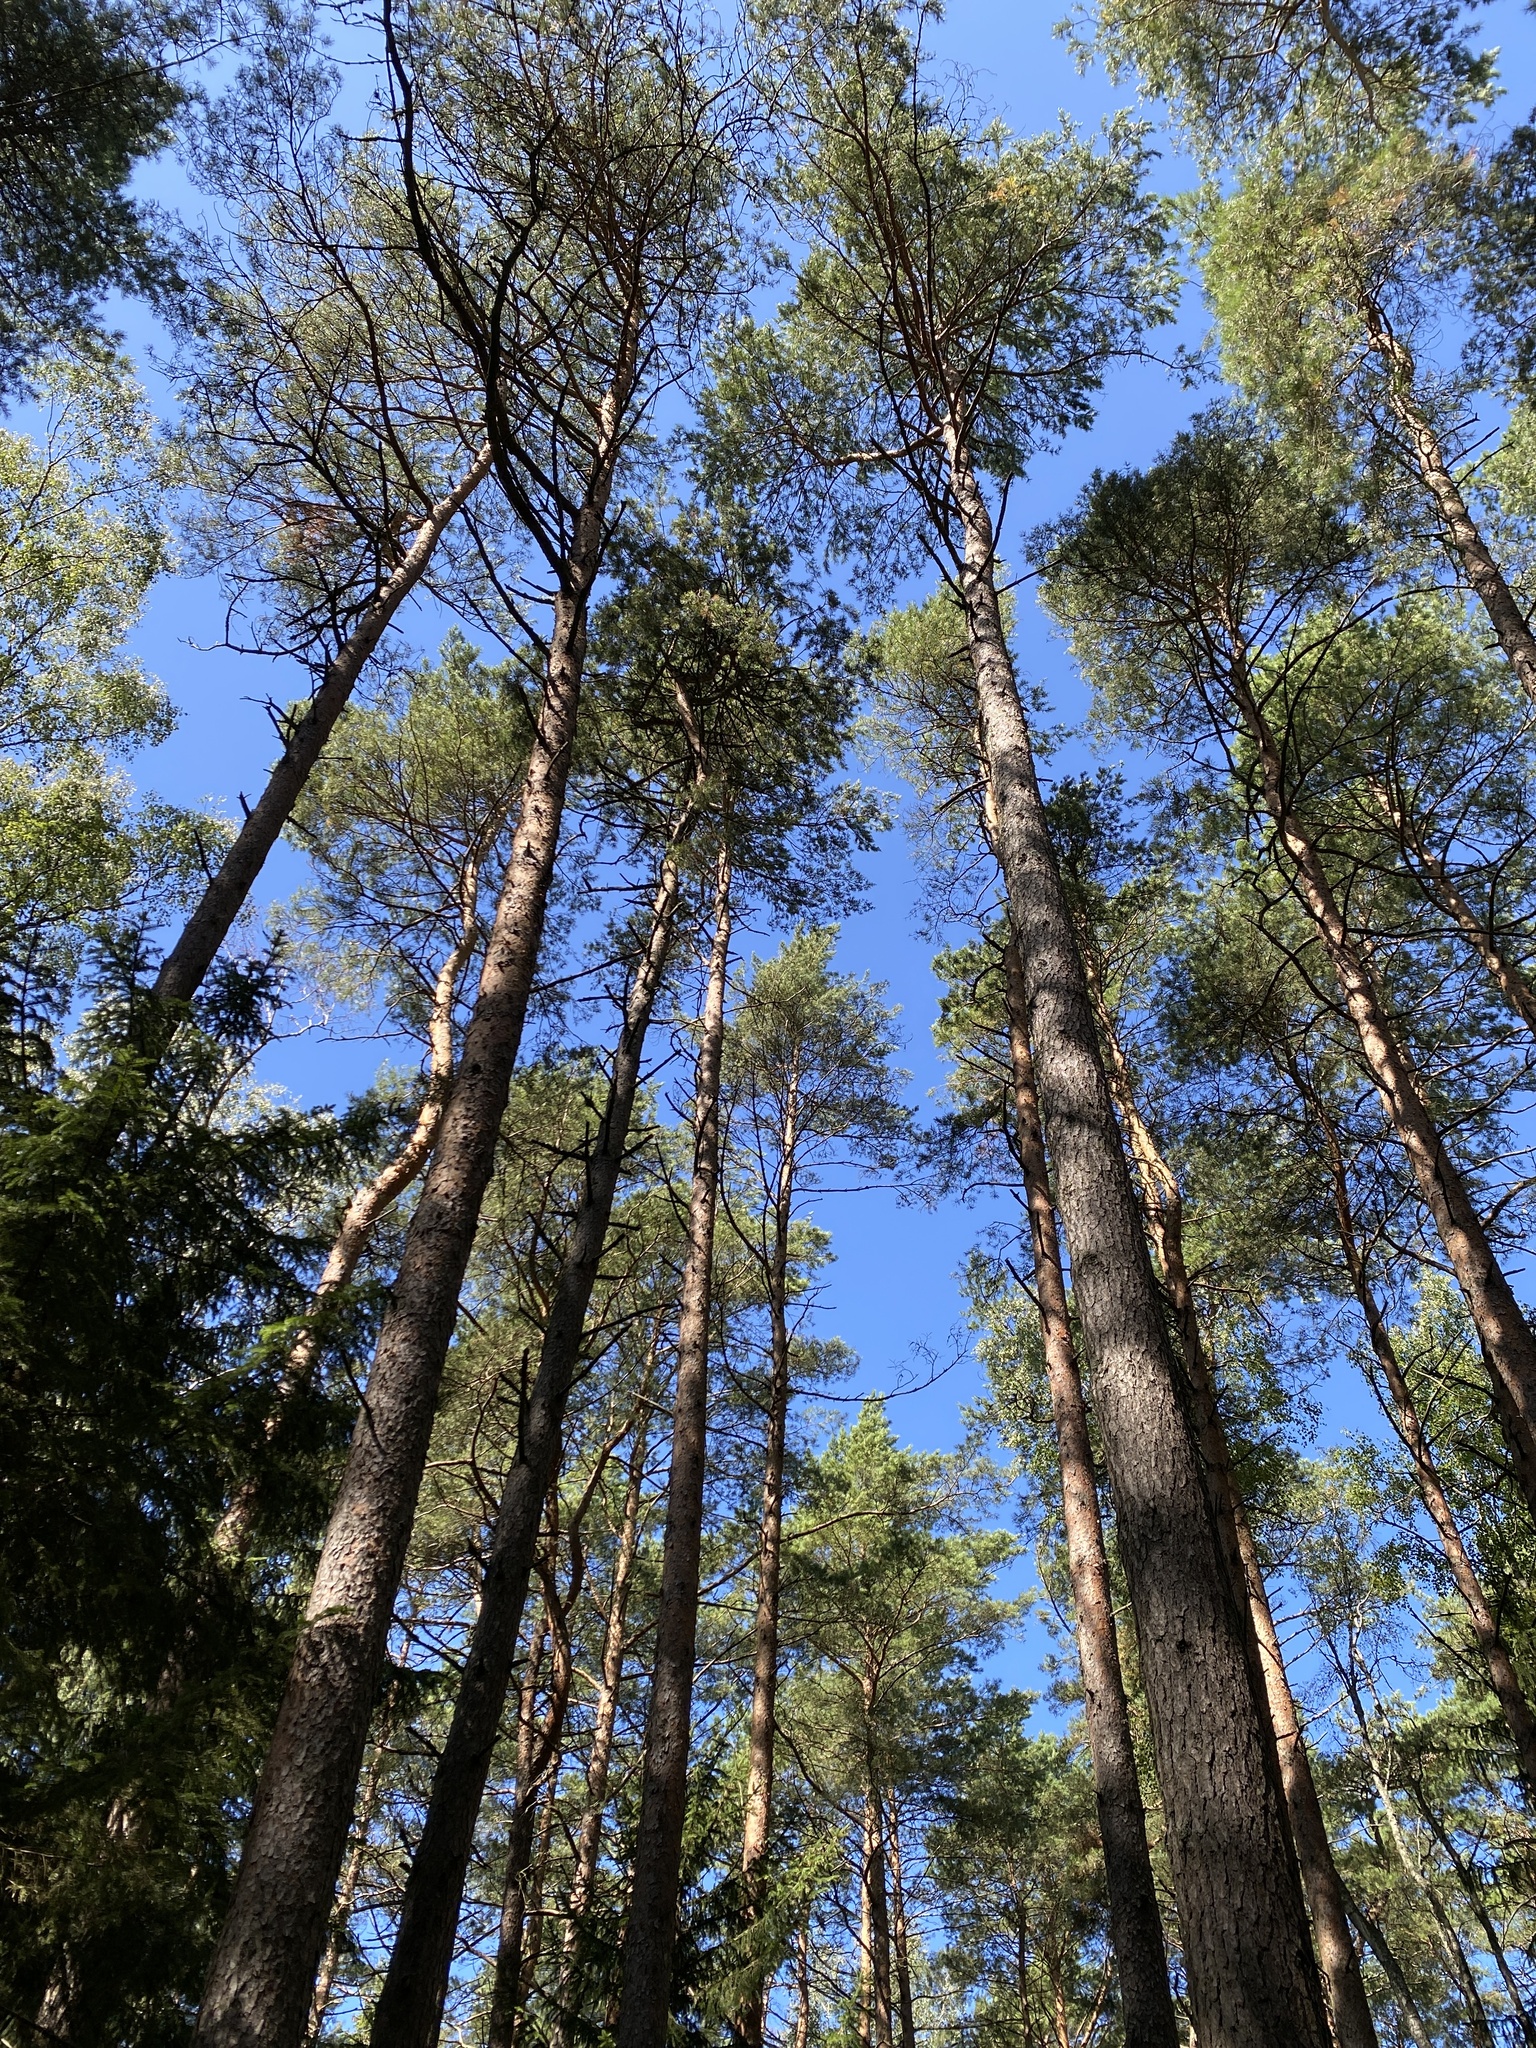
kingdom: Plantae
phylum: Tracheophyta
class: Pinopsida
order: Pinales
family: Pinaceae
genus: Pinus
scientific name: Pinus sylvestris
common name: Scots pine
